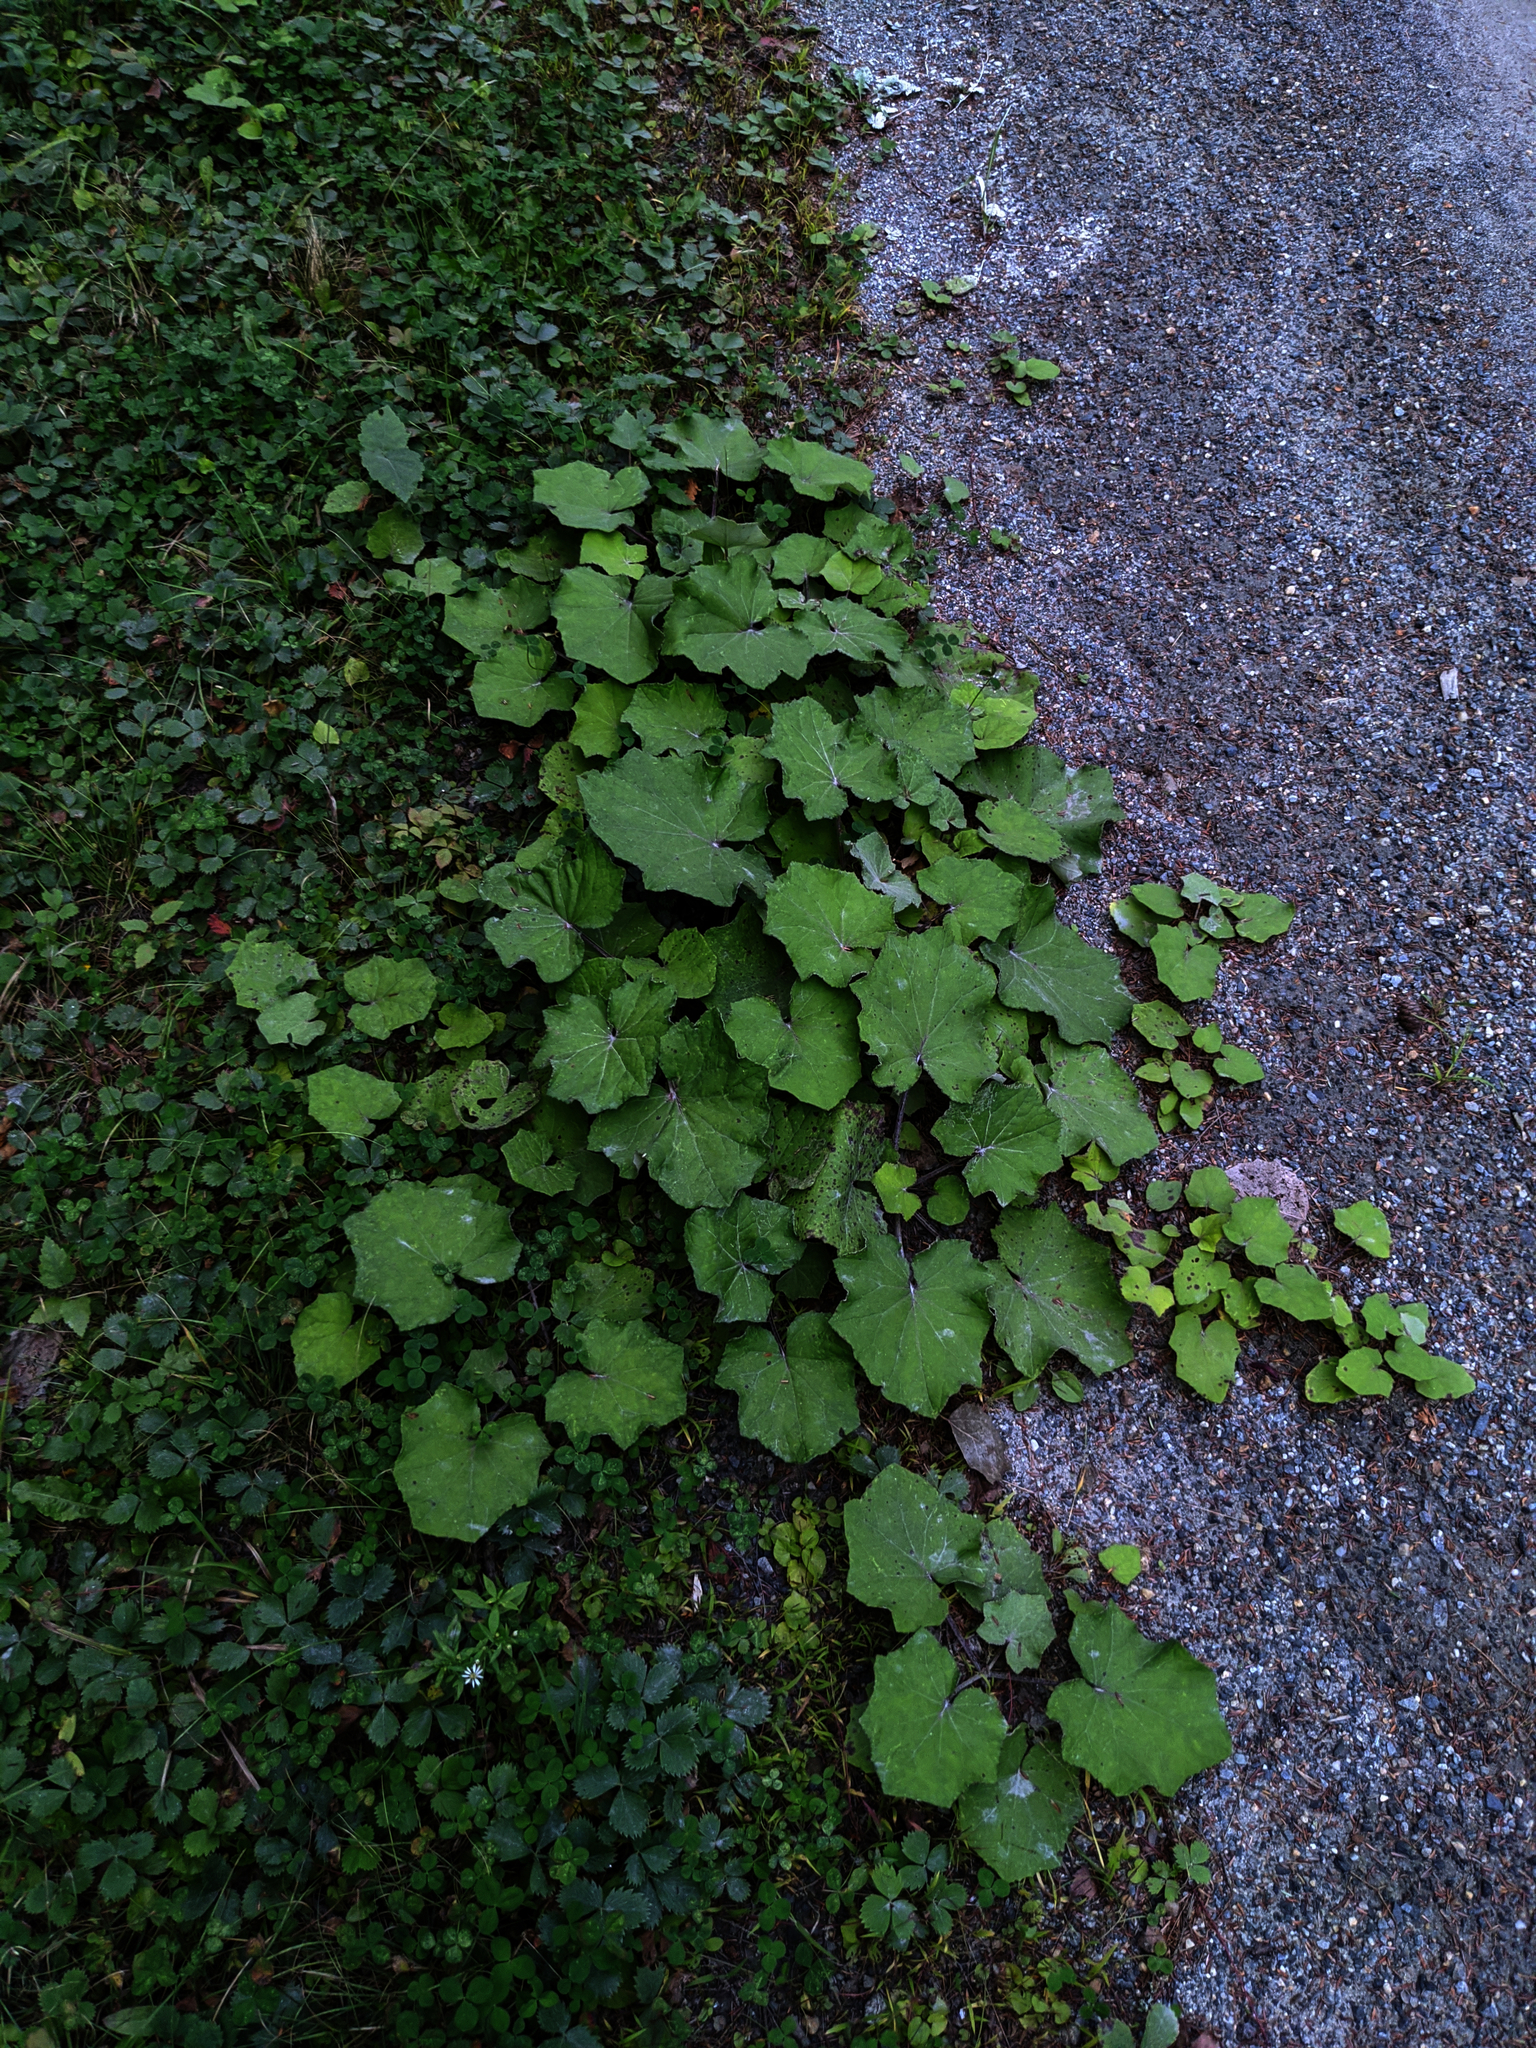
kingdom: Plantae
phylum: Tracheophyta
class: Magnoliopsida
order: Asterales
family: Asteraceae
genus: Tussilago
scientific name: Tussilago farfara
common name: Coltsfoot
